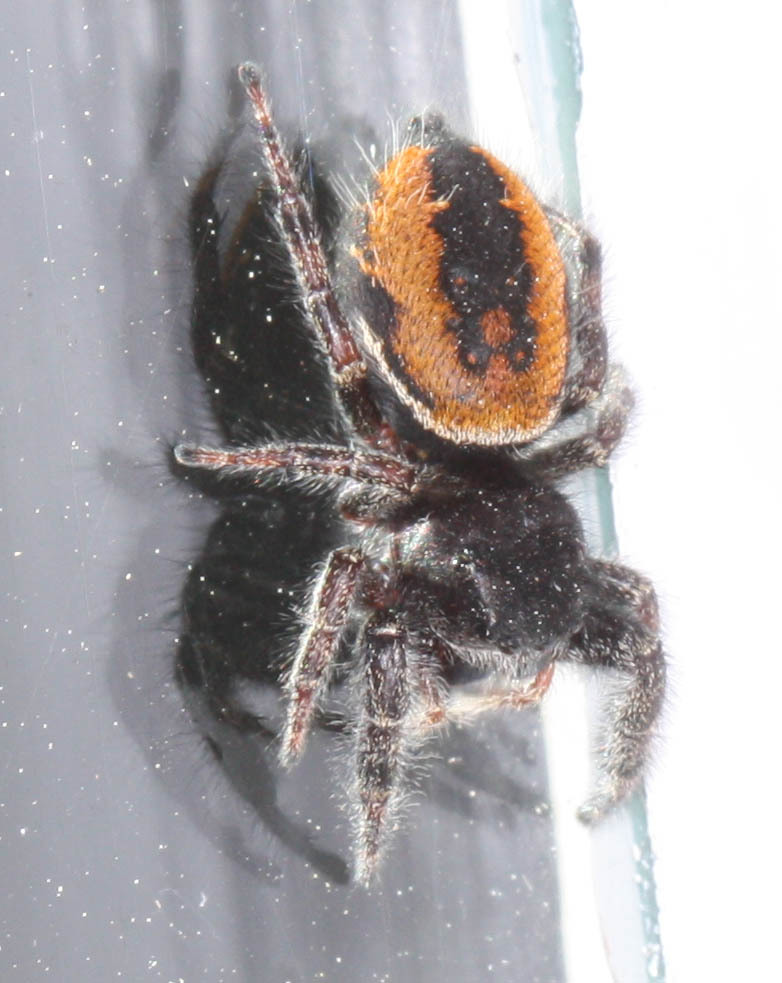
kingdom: Animalia
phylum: Arthropoda
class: Arachnida
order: Araneae
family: Salticidae
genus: Phidippus
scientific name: Phidippus johnsoni
